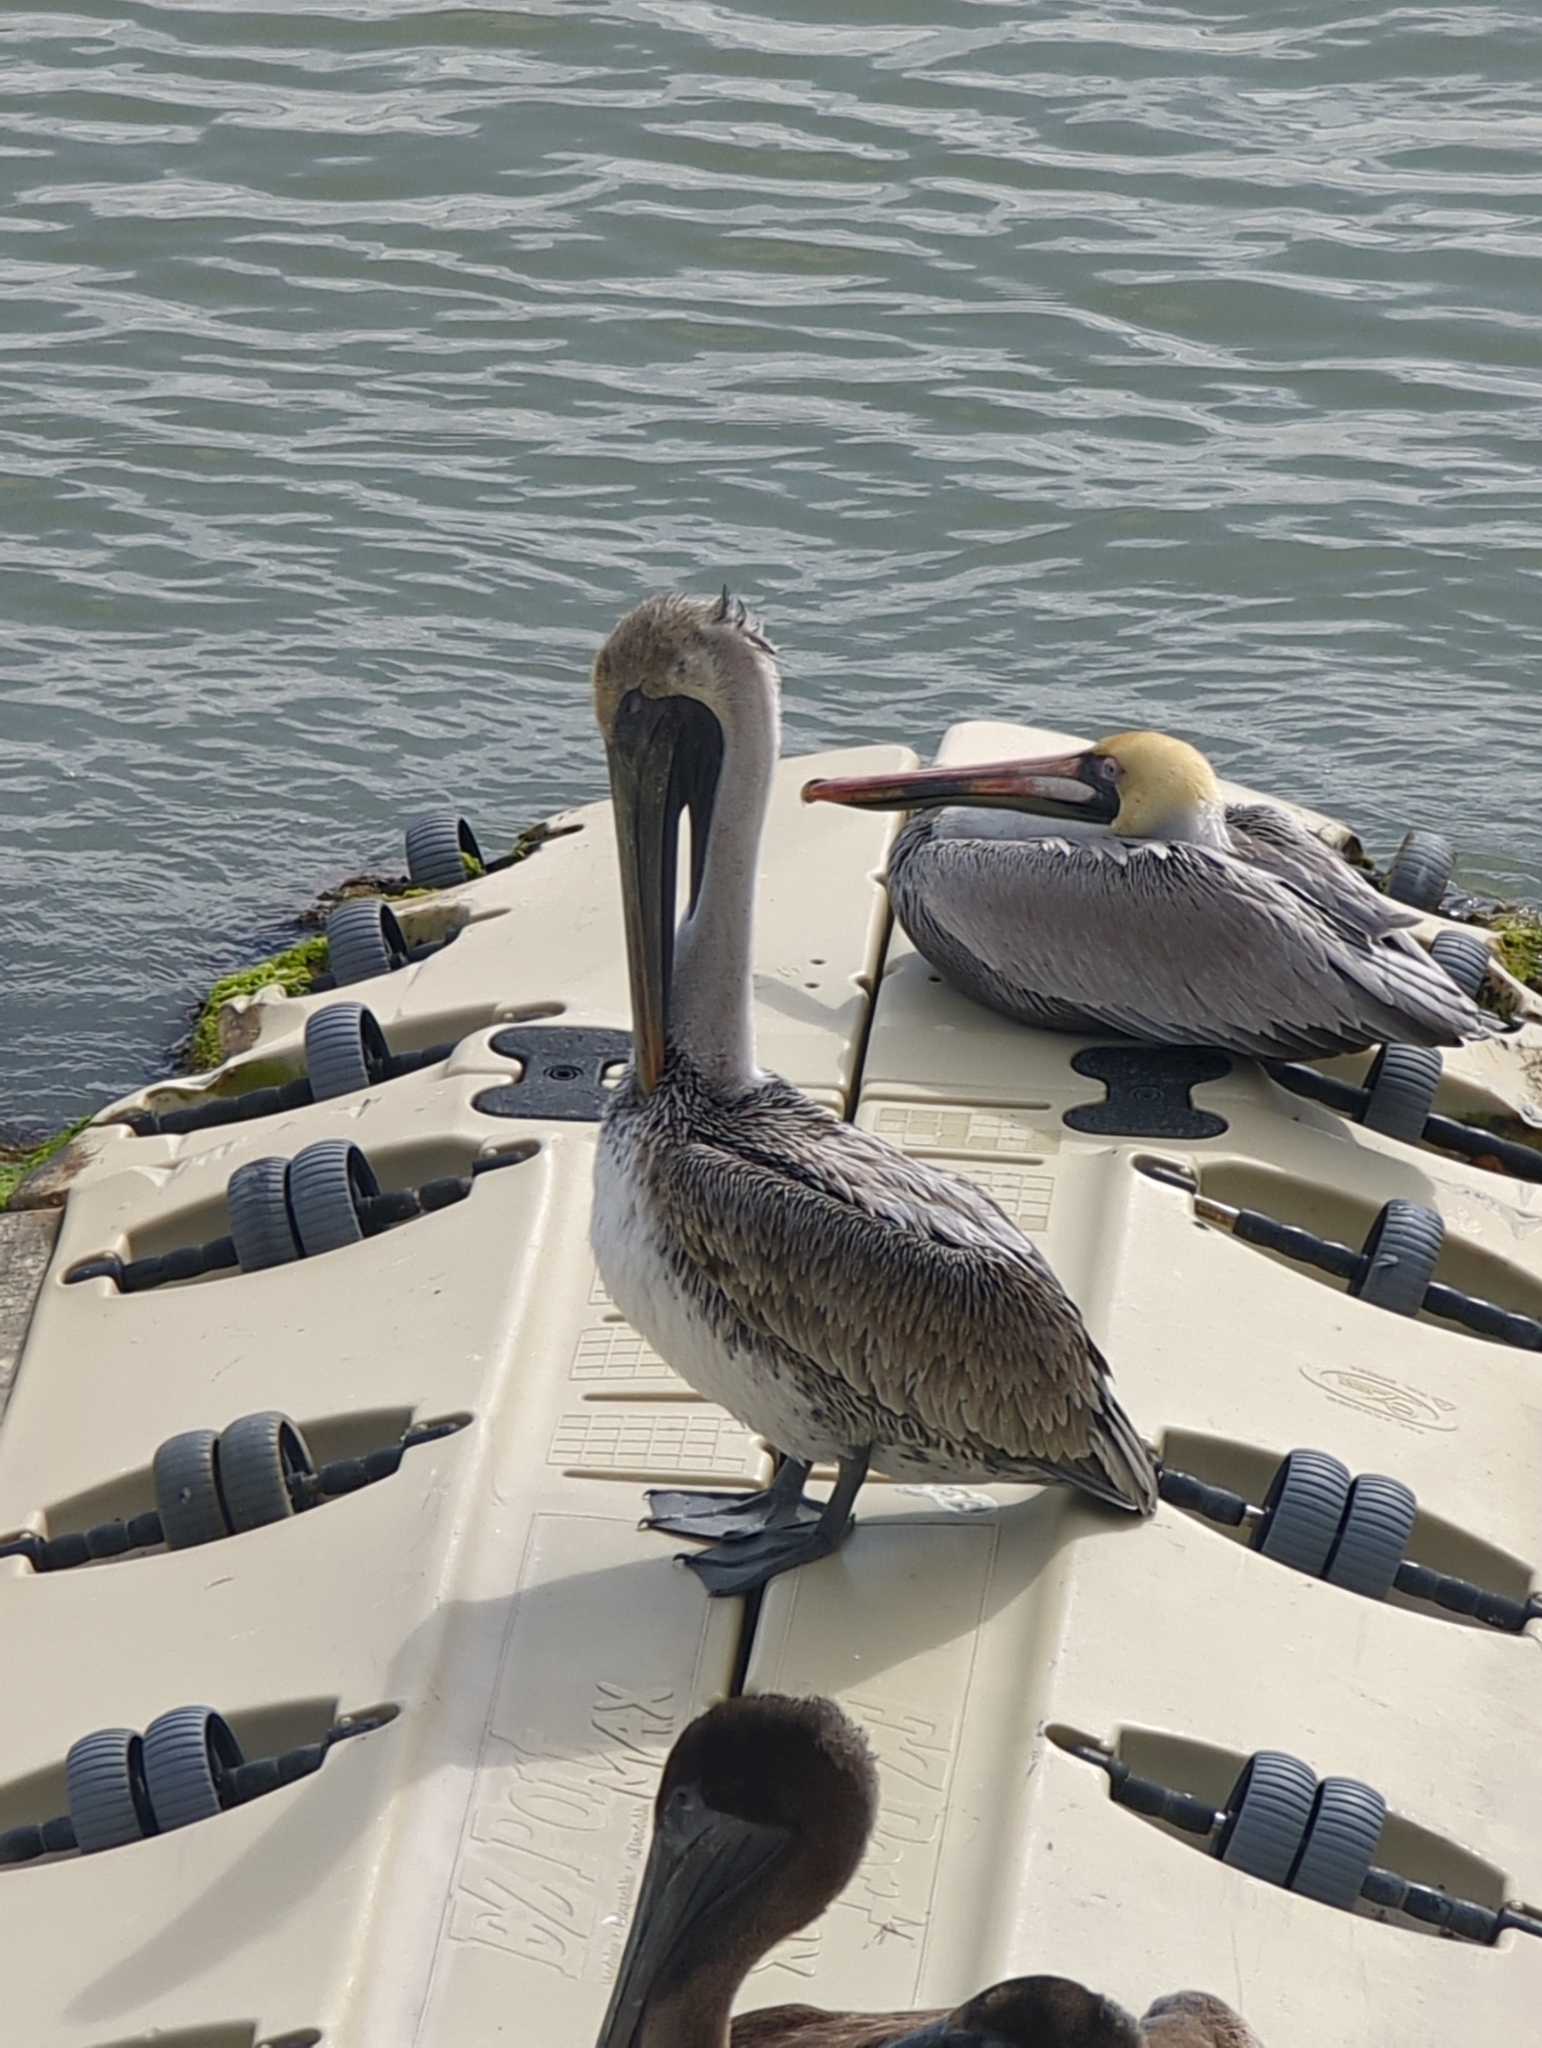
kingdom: Animalia
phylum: Chordata
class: Aves
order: Pelecaniformes
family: Pelecanidae
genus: Pelecanus
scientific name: Pelecanus occidentalis
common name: Brown pelican
